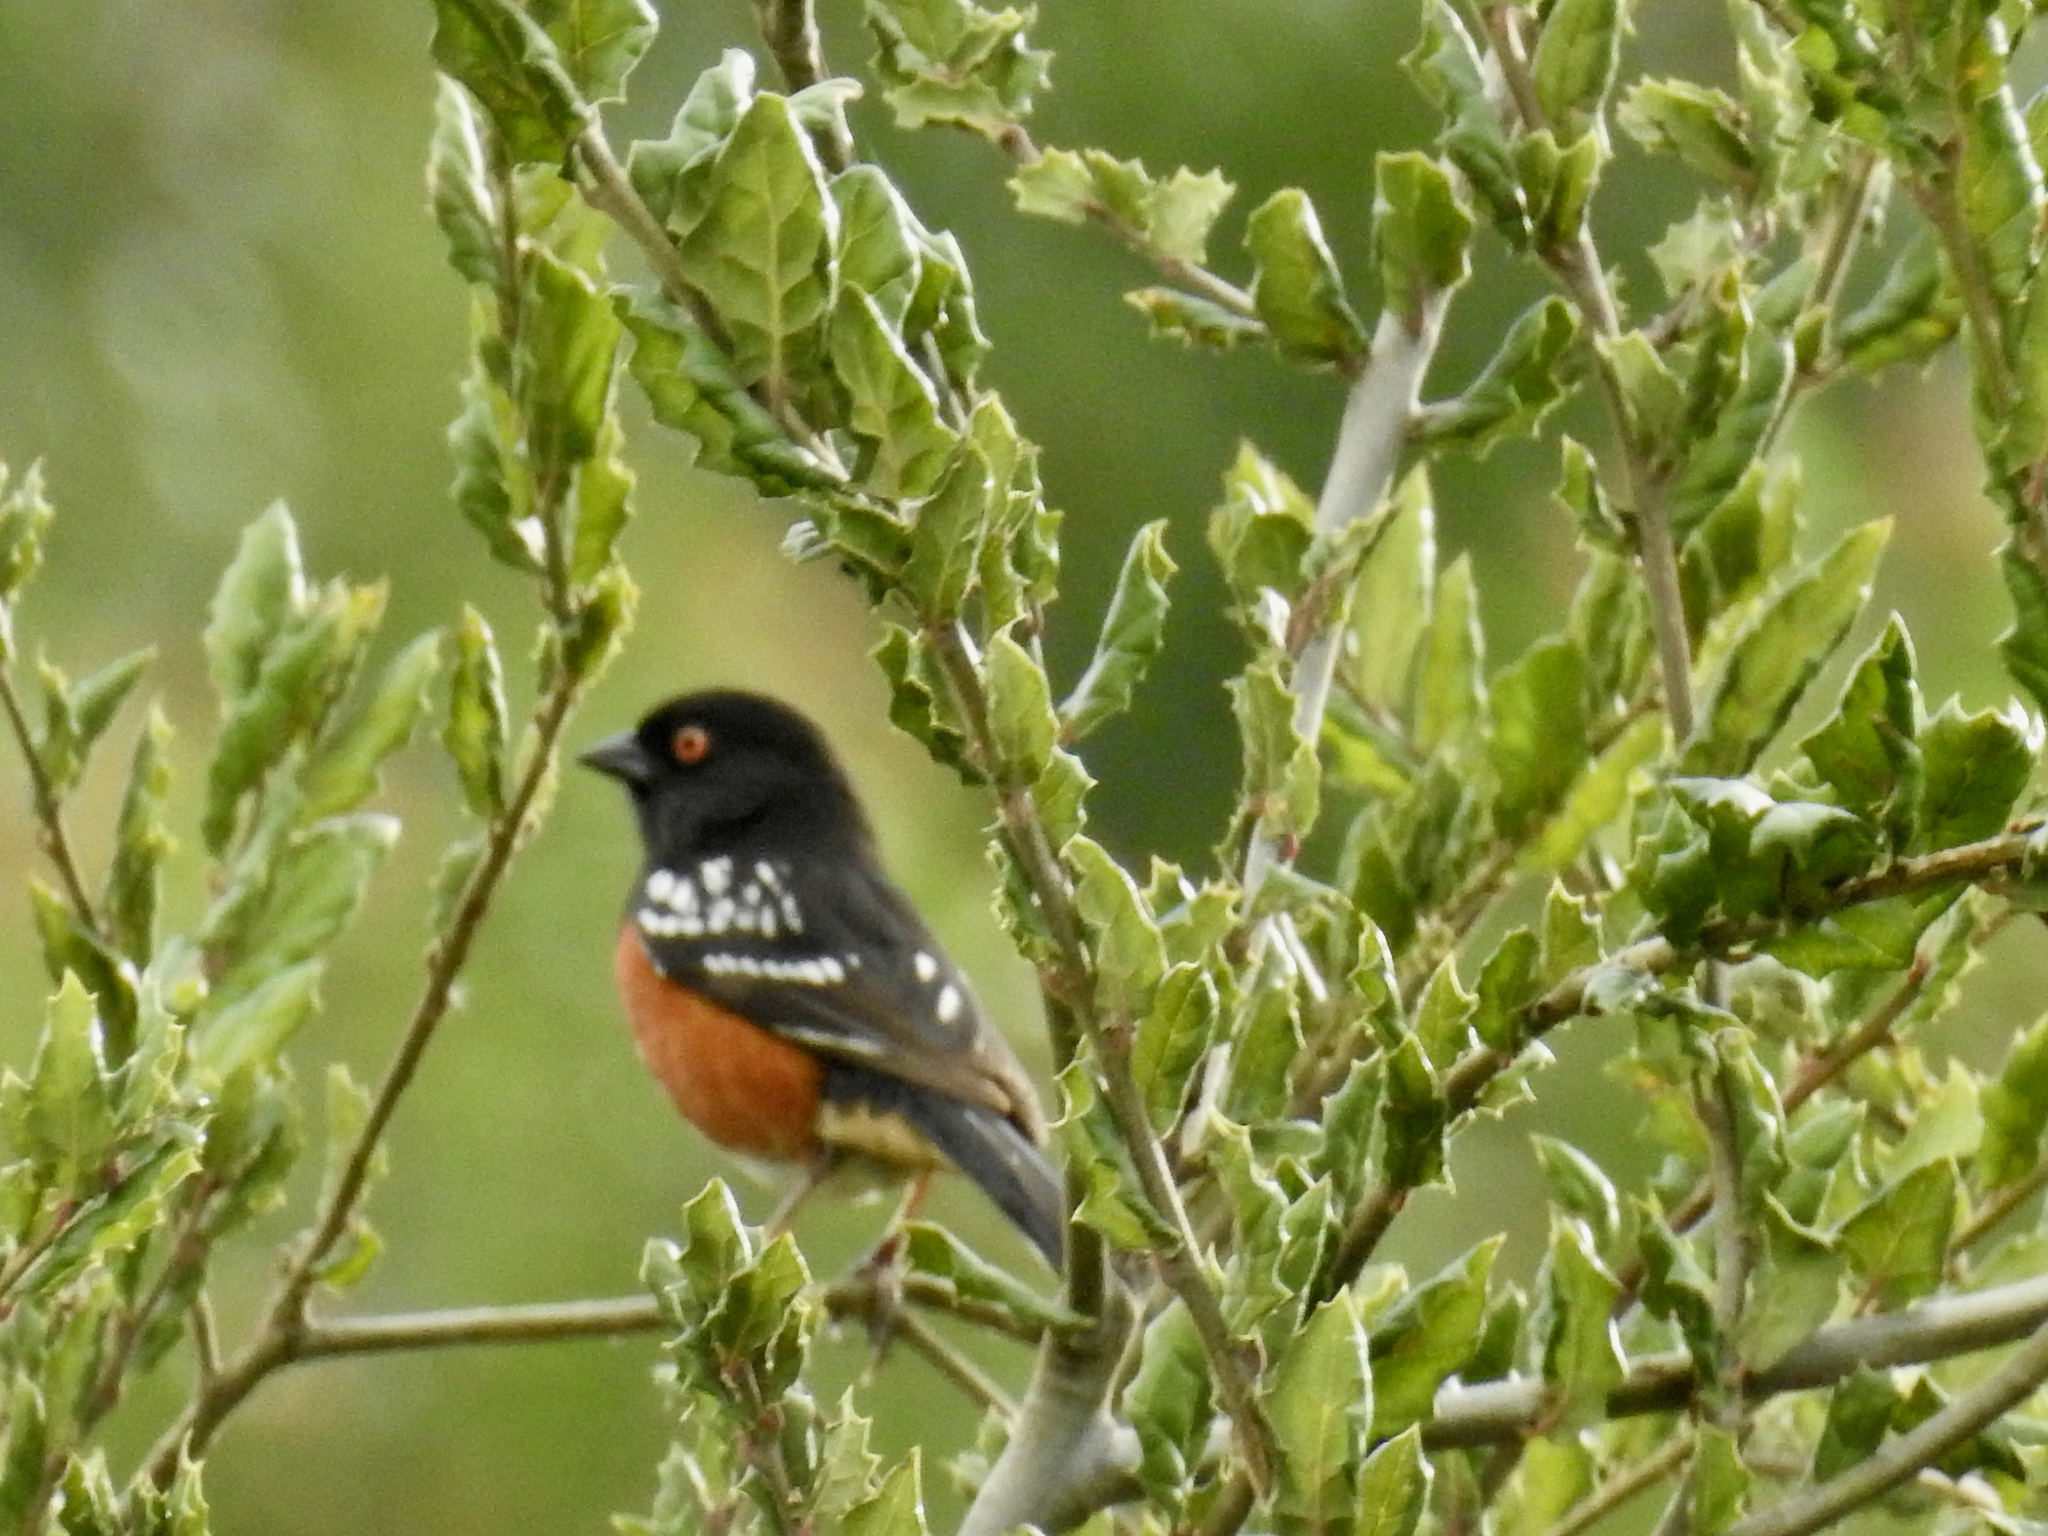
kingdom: Animalia
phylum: Chordata
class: Aves
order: Passeriformes
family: Passerellidae
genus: Pipilo
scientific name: Pipilo maculatus
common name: Spotted towhee
